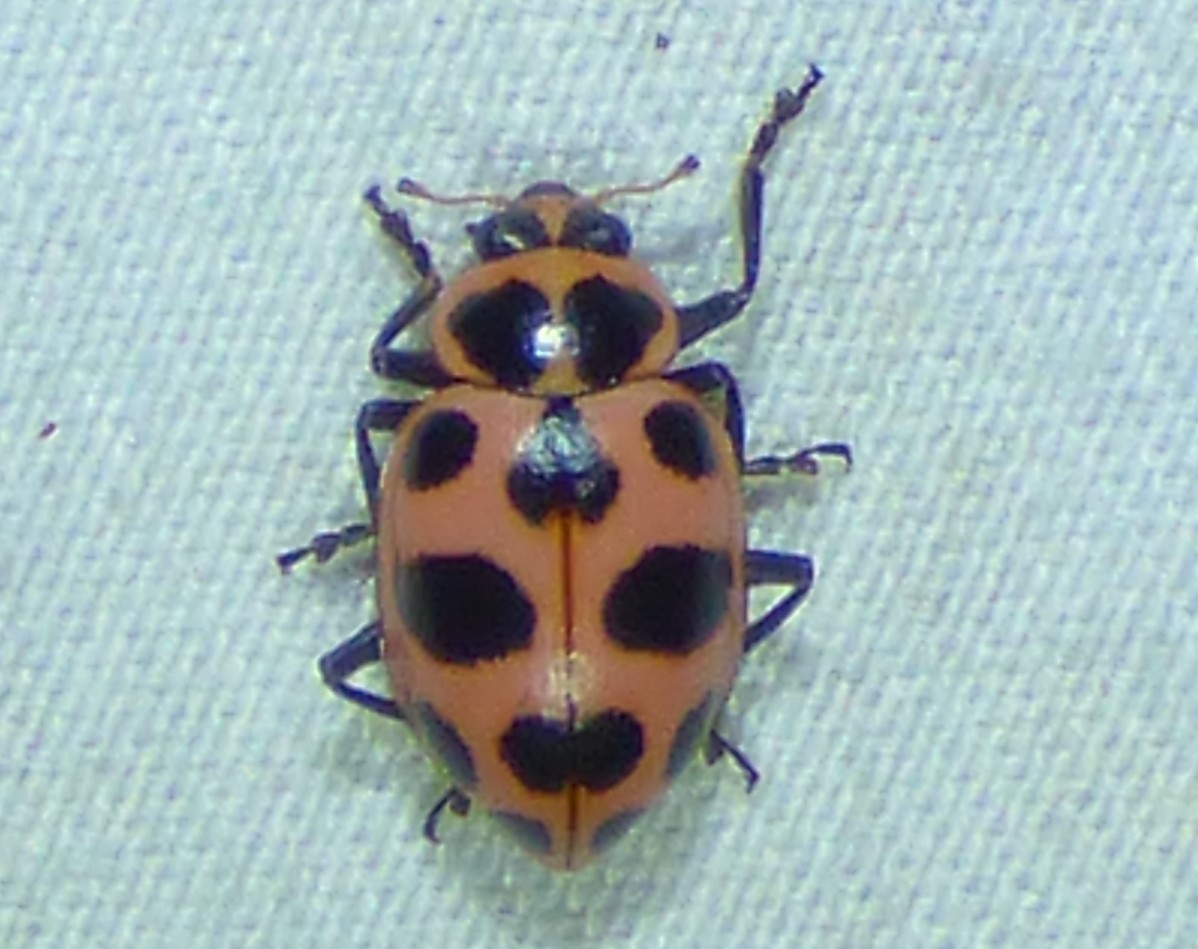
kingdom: Animalia
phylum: Arthropoda
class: Insecta
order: Coleoptera
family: Coccinellidae
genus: Coleomegilla
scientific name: Coleomegilla maculata
